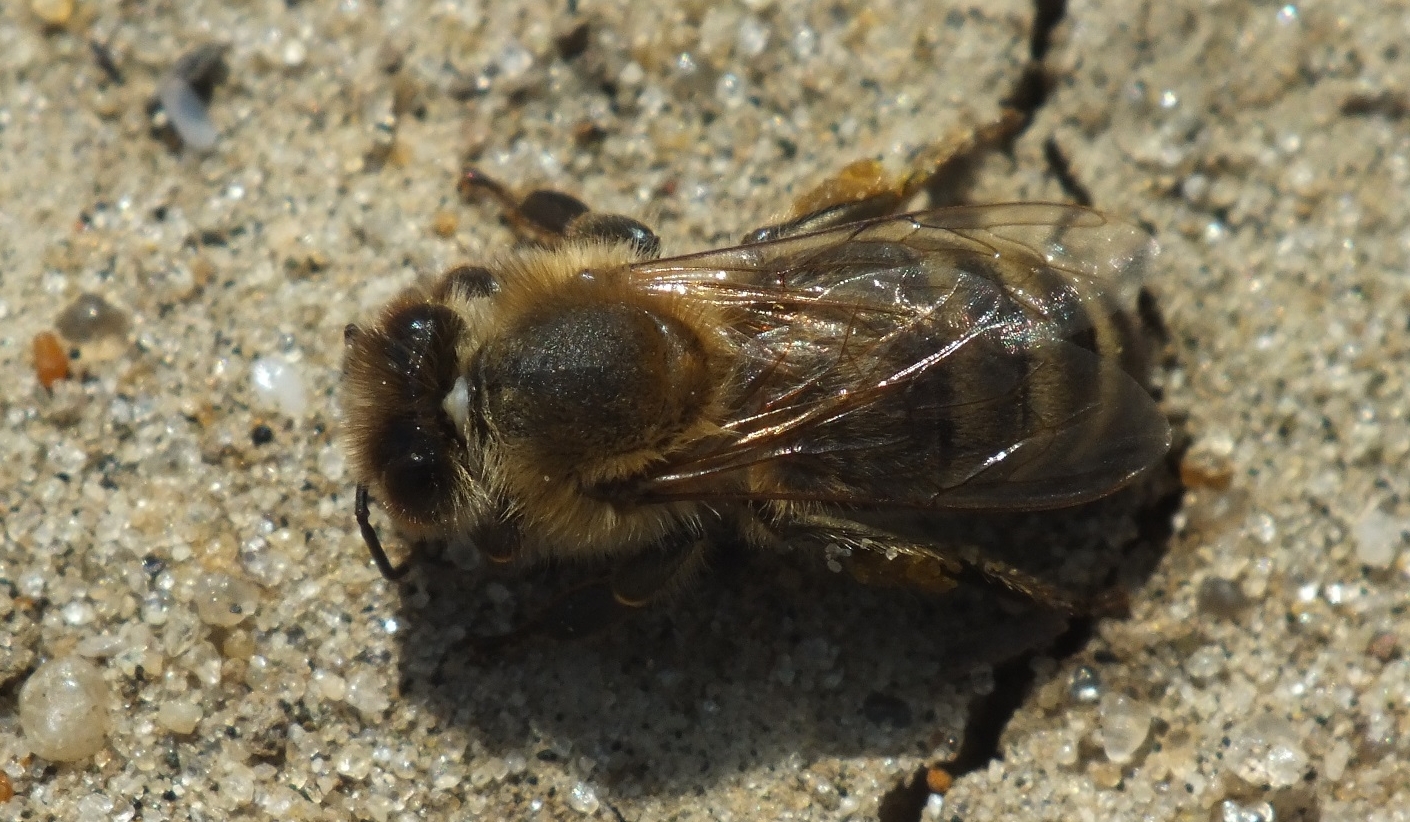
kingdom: Animalia
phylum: Arthropoda
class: Insecta
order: Hymenoptera
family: Apidae
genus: Apis
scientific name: Apis mellifera
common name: Honey bee
